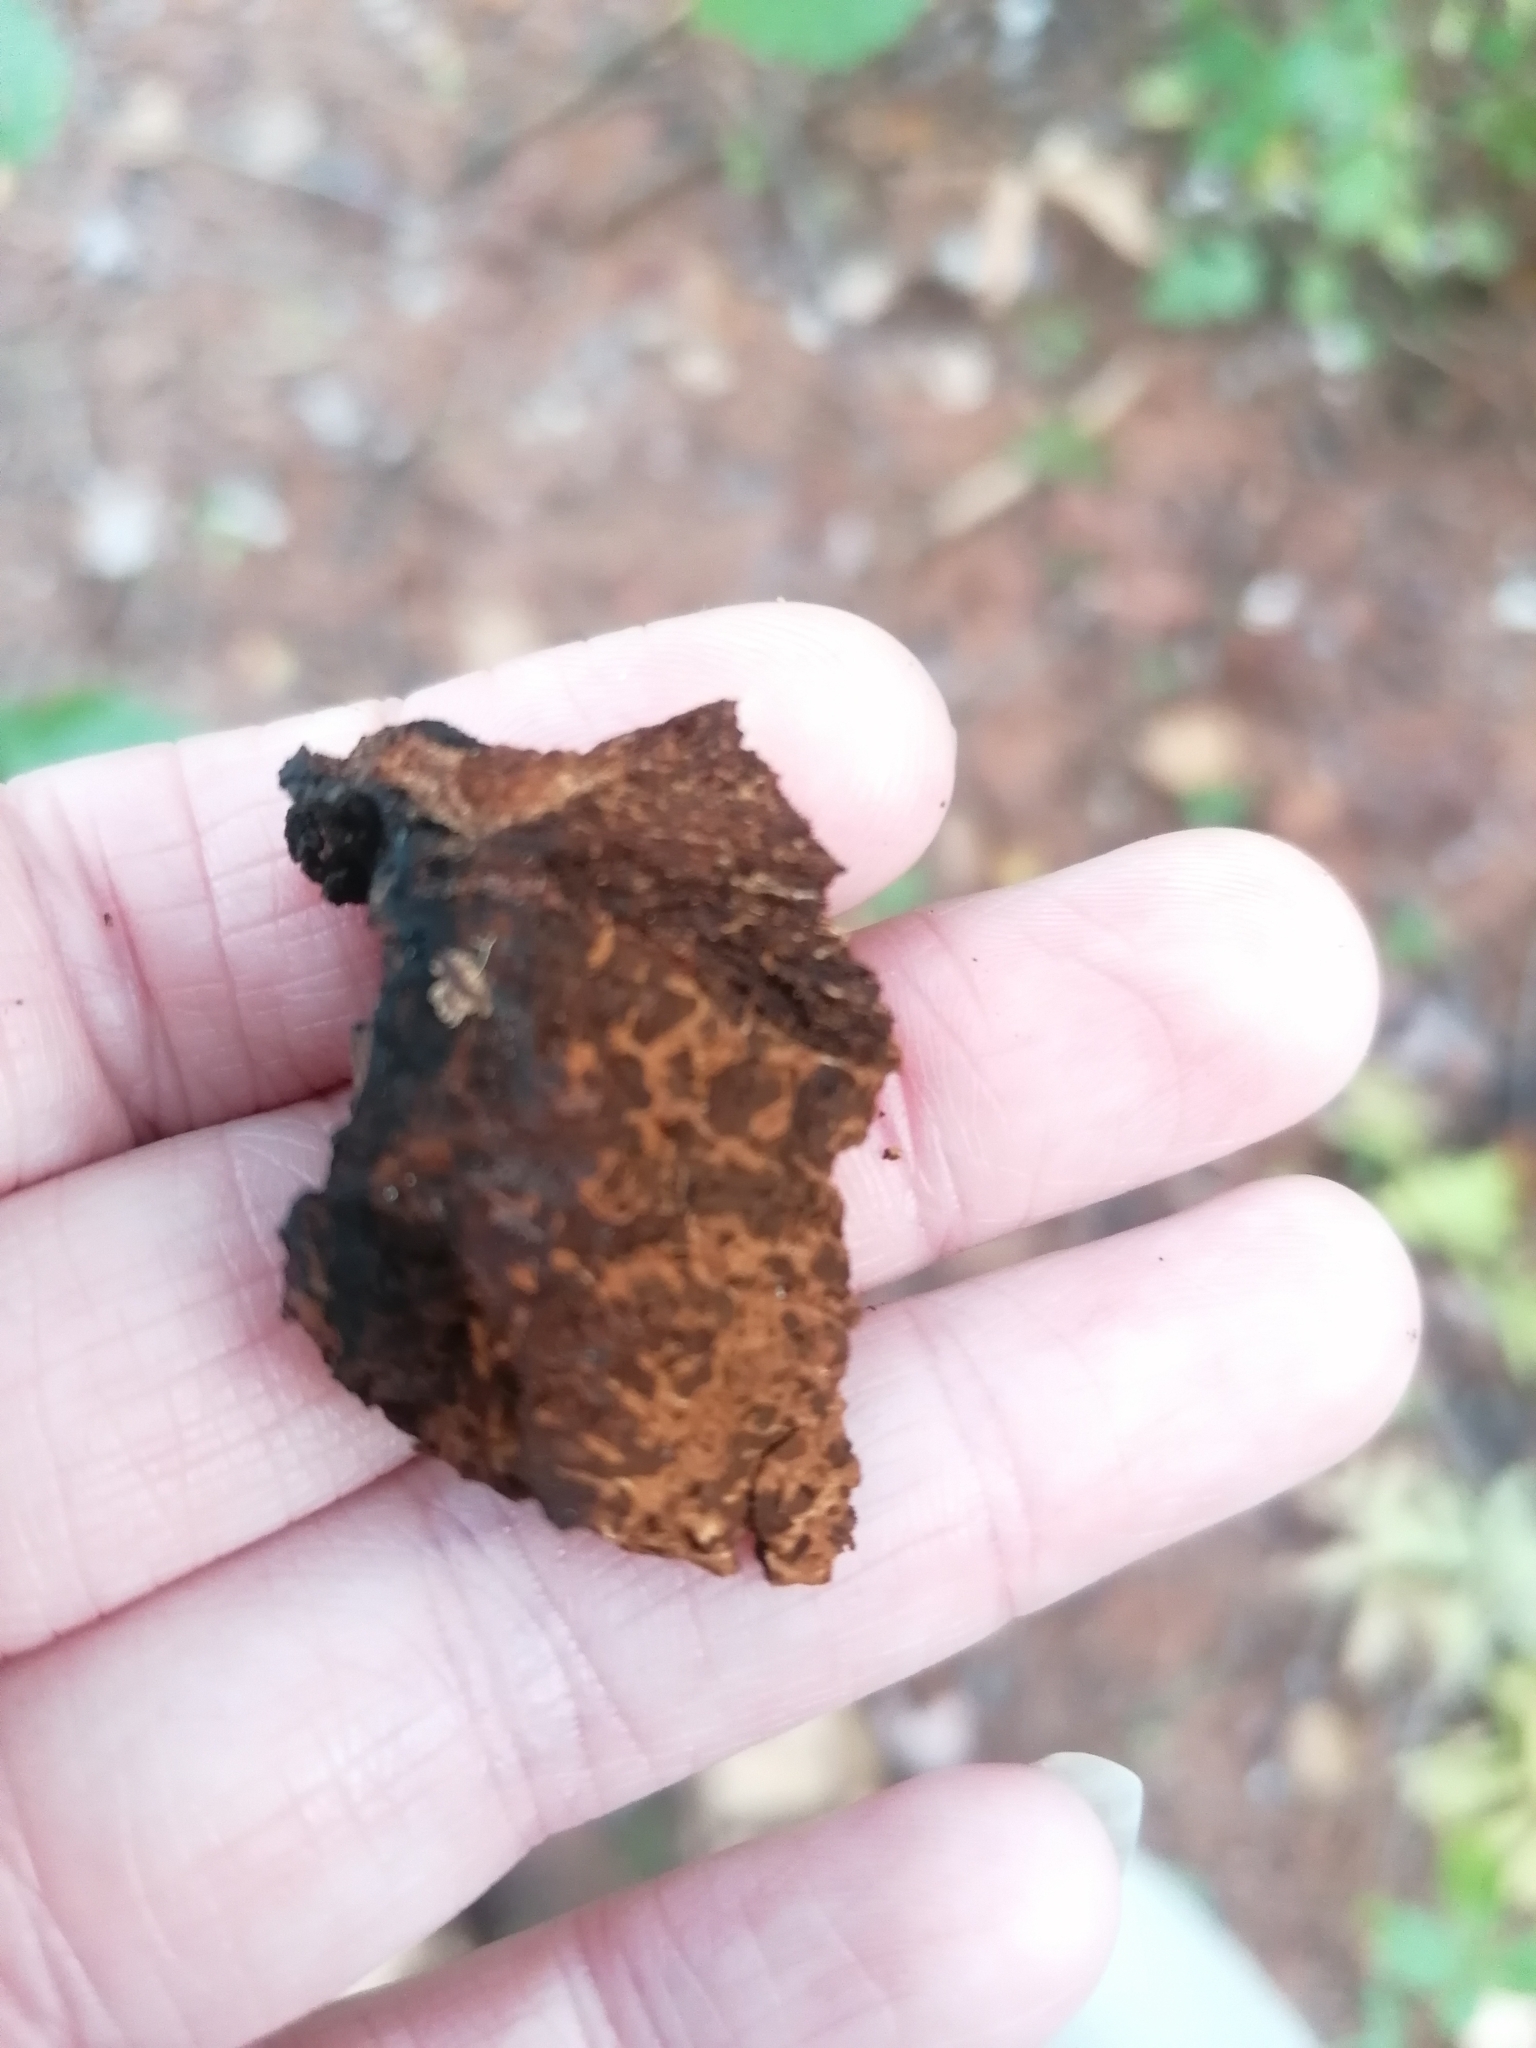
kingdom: Fungi
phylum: Basidiomycota
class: Agaricomycetes
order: Hymenochaetales
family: Hymenochaetaceae
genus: Inonotus
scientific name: Inonotus obliquus
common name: Chaga
